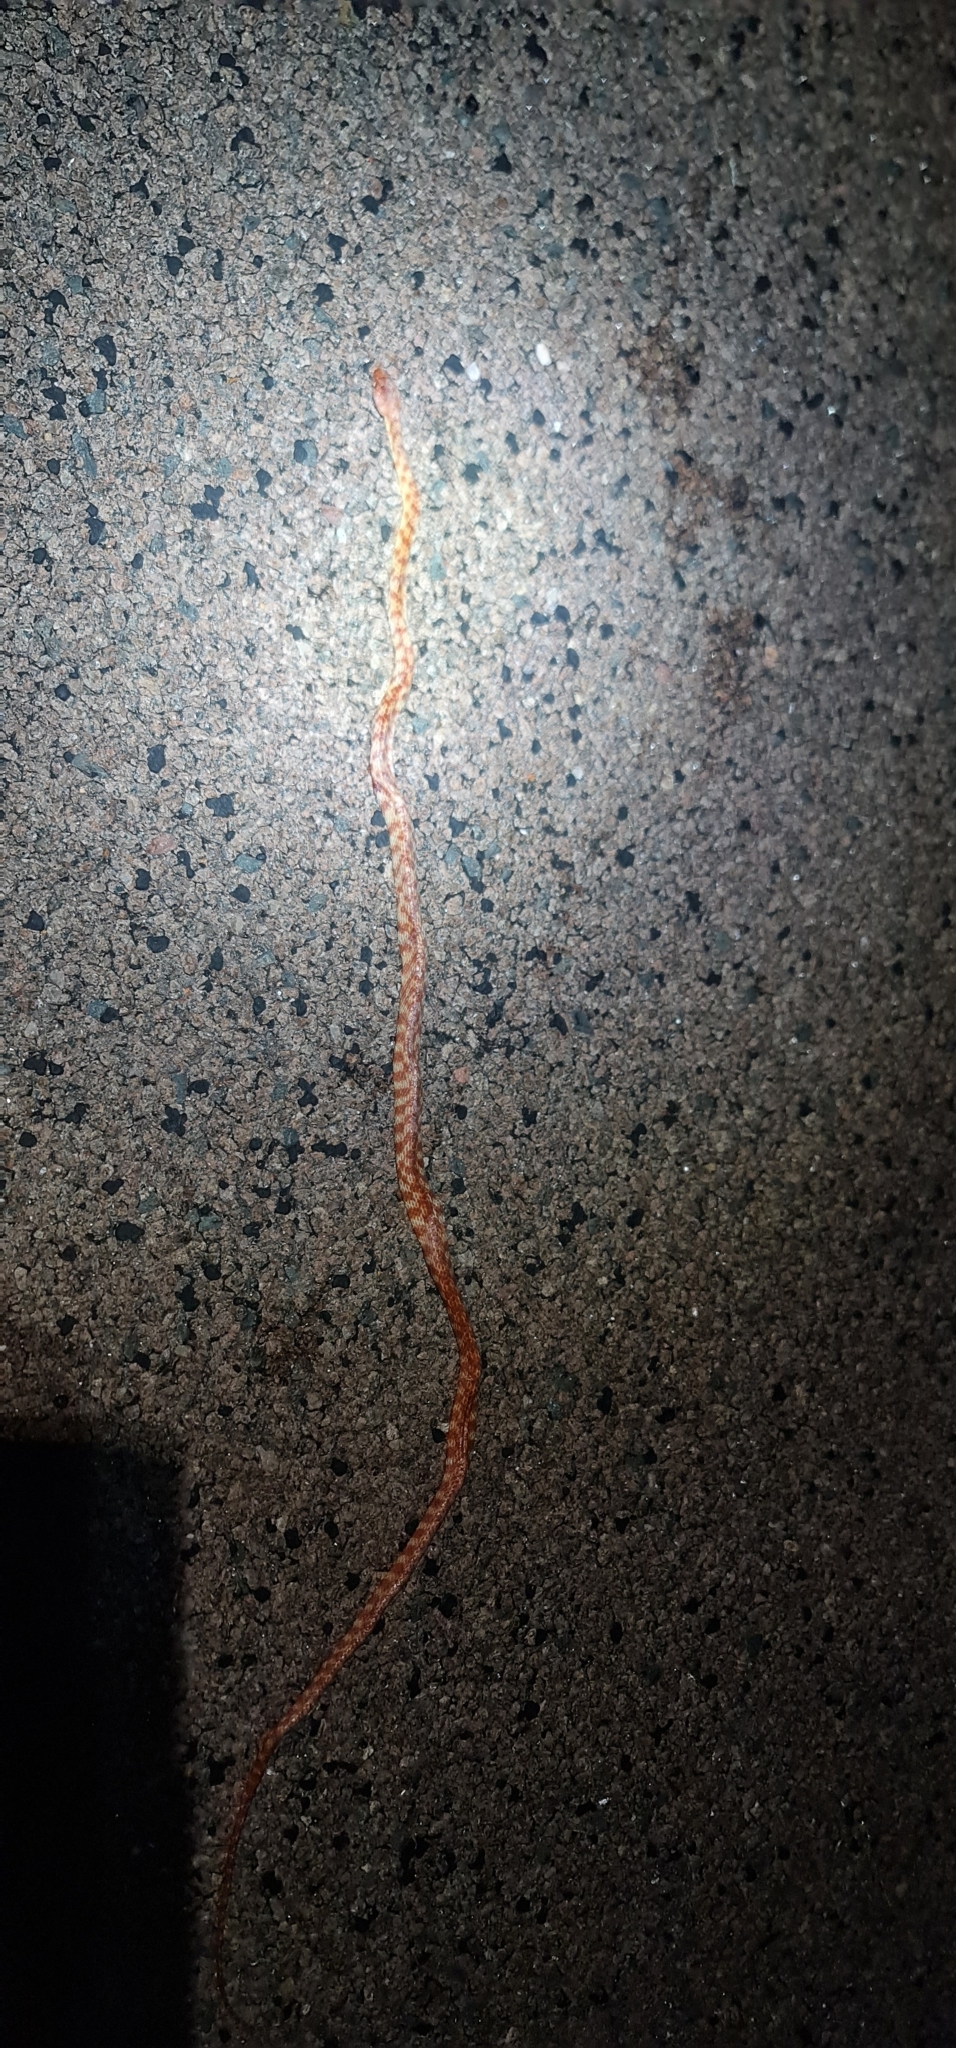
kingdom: Animalia
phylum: Chordata
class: Squamata
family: Colubridae
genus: Boiga
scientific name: Boiga irregularis
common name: Brown tree snake
